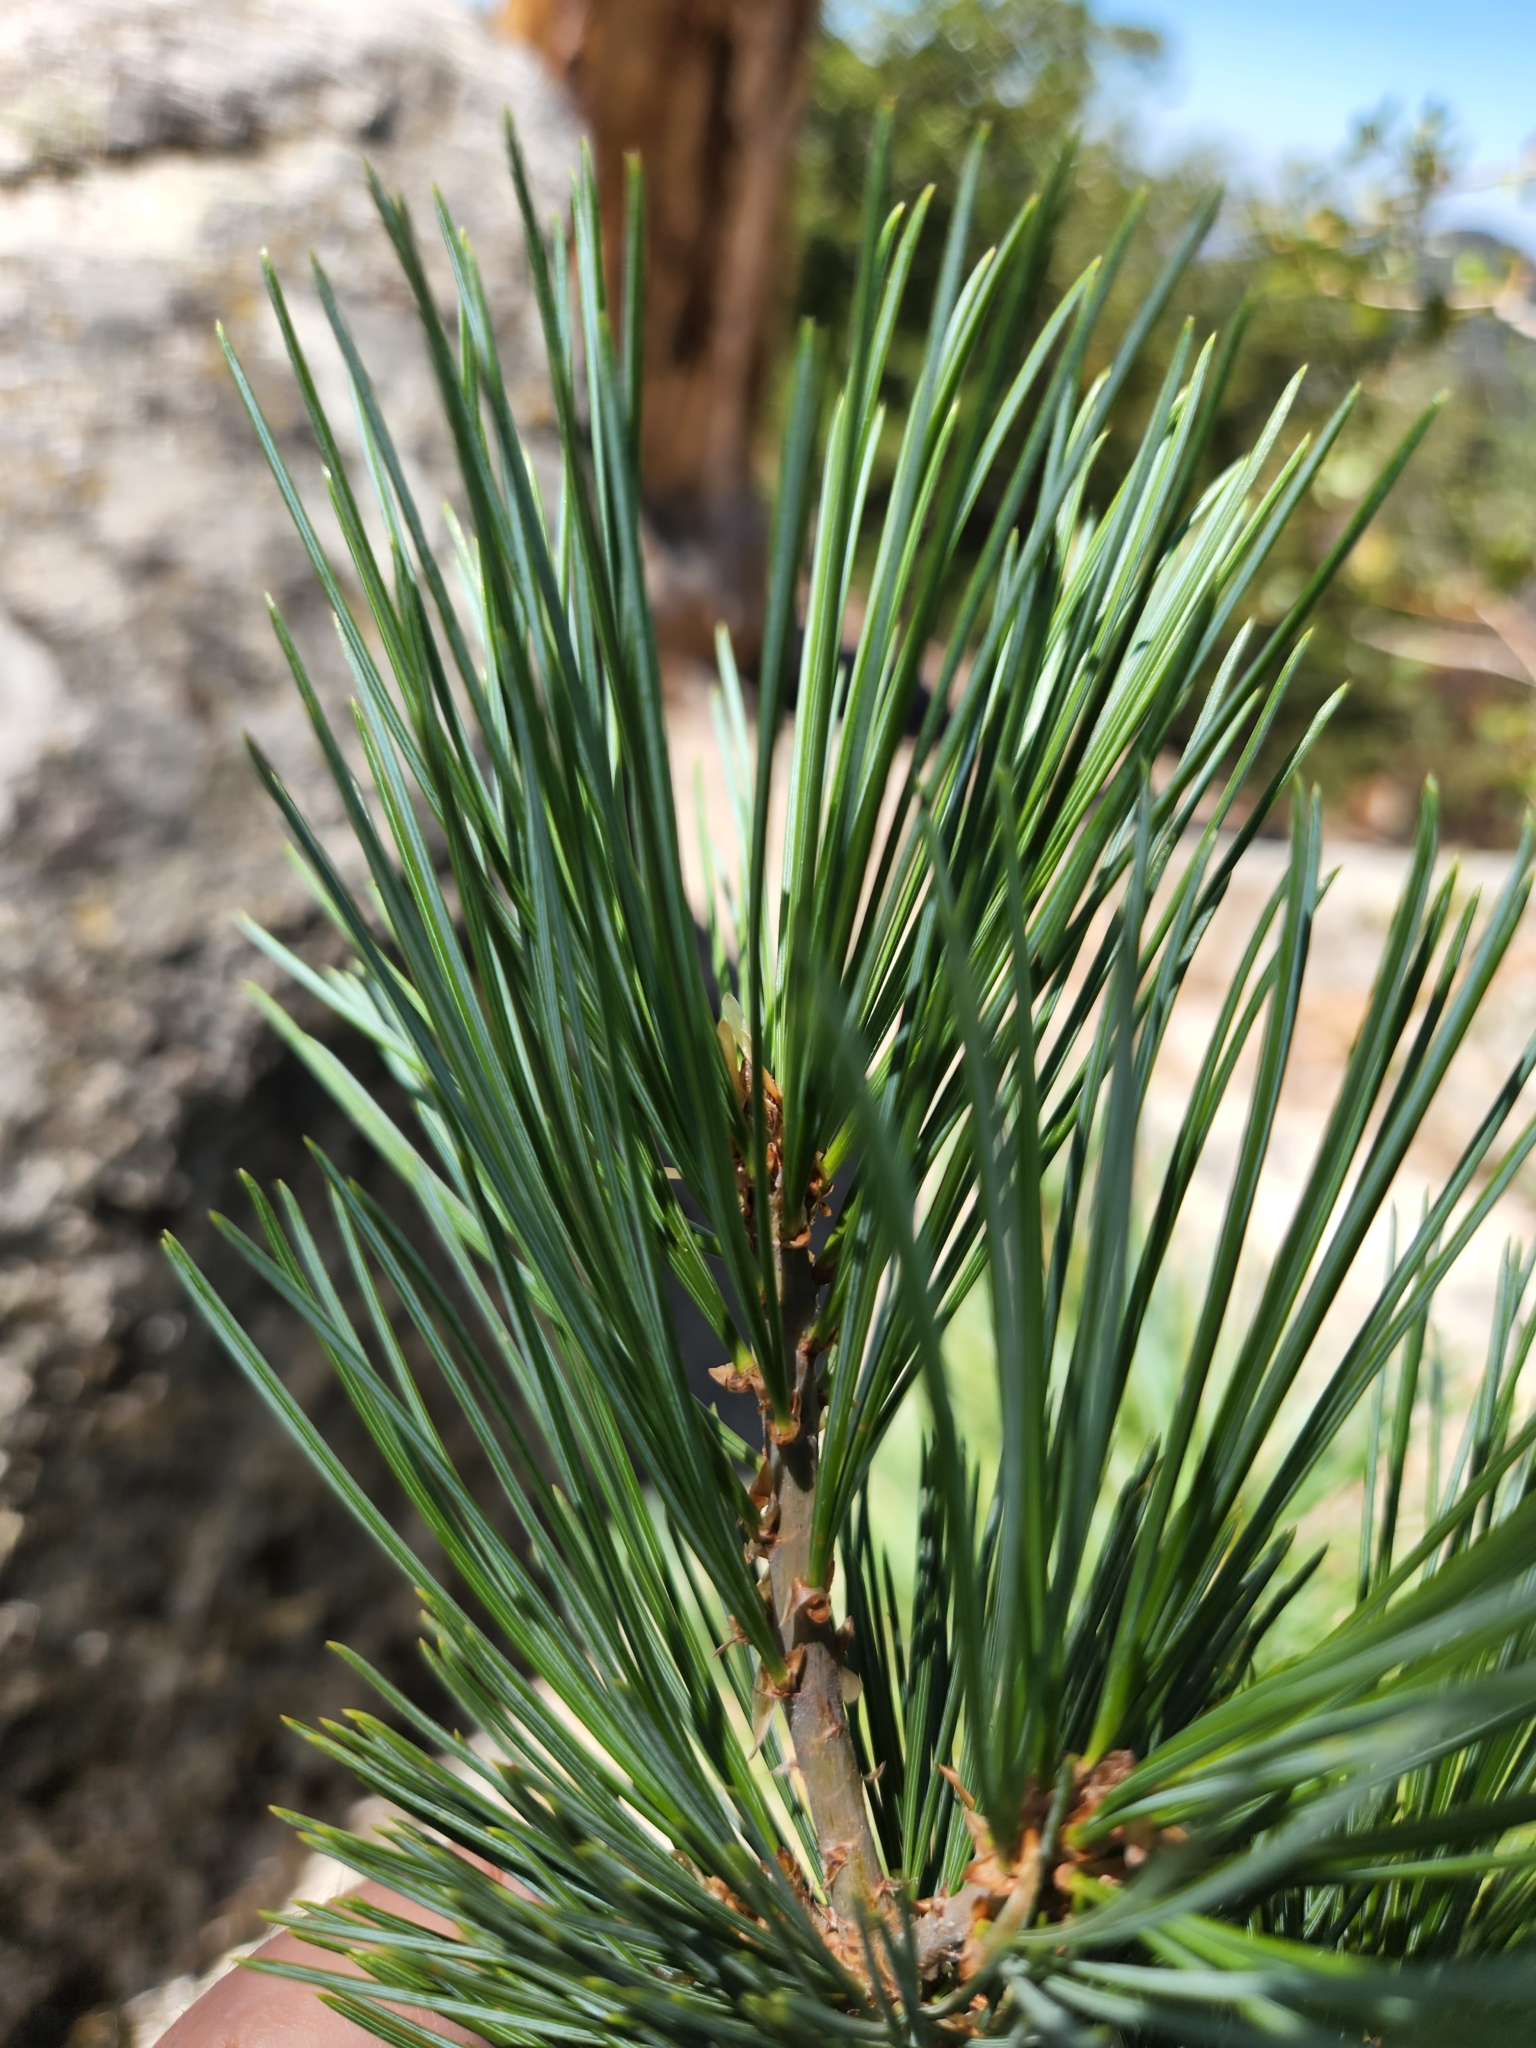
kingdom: Plantae
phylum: Tracheophyta
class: Pinopsida
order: Pinales
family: Pinaceae
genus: Pinus
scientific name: Pinus lambertiana
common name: Sugar pine
